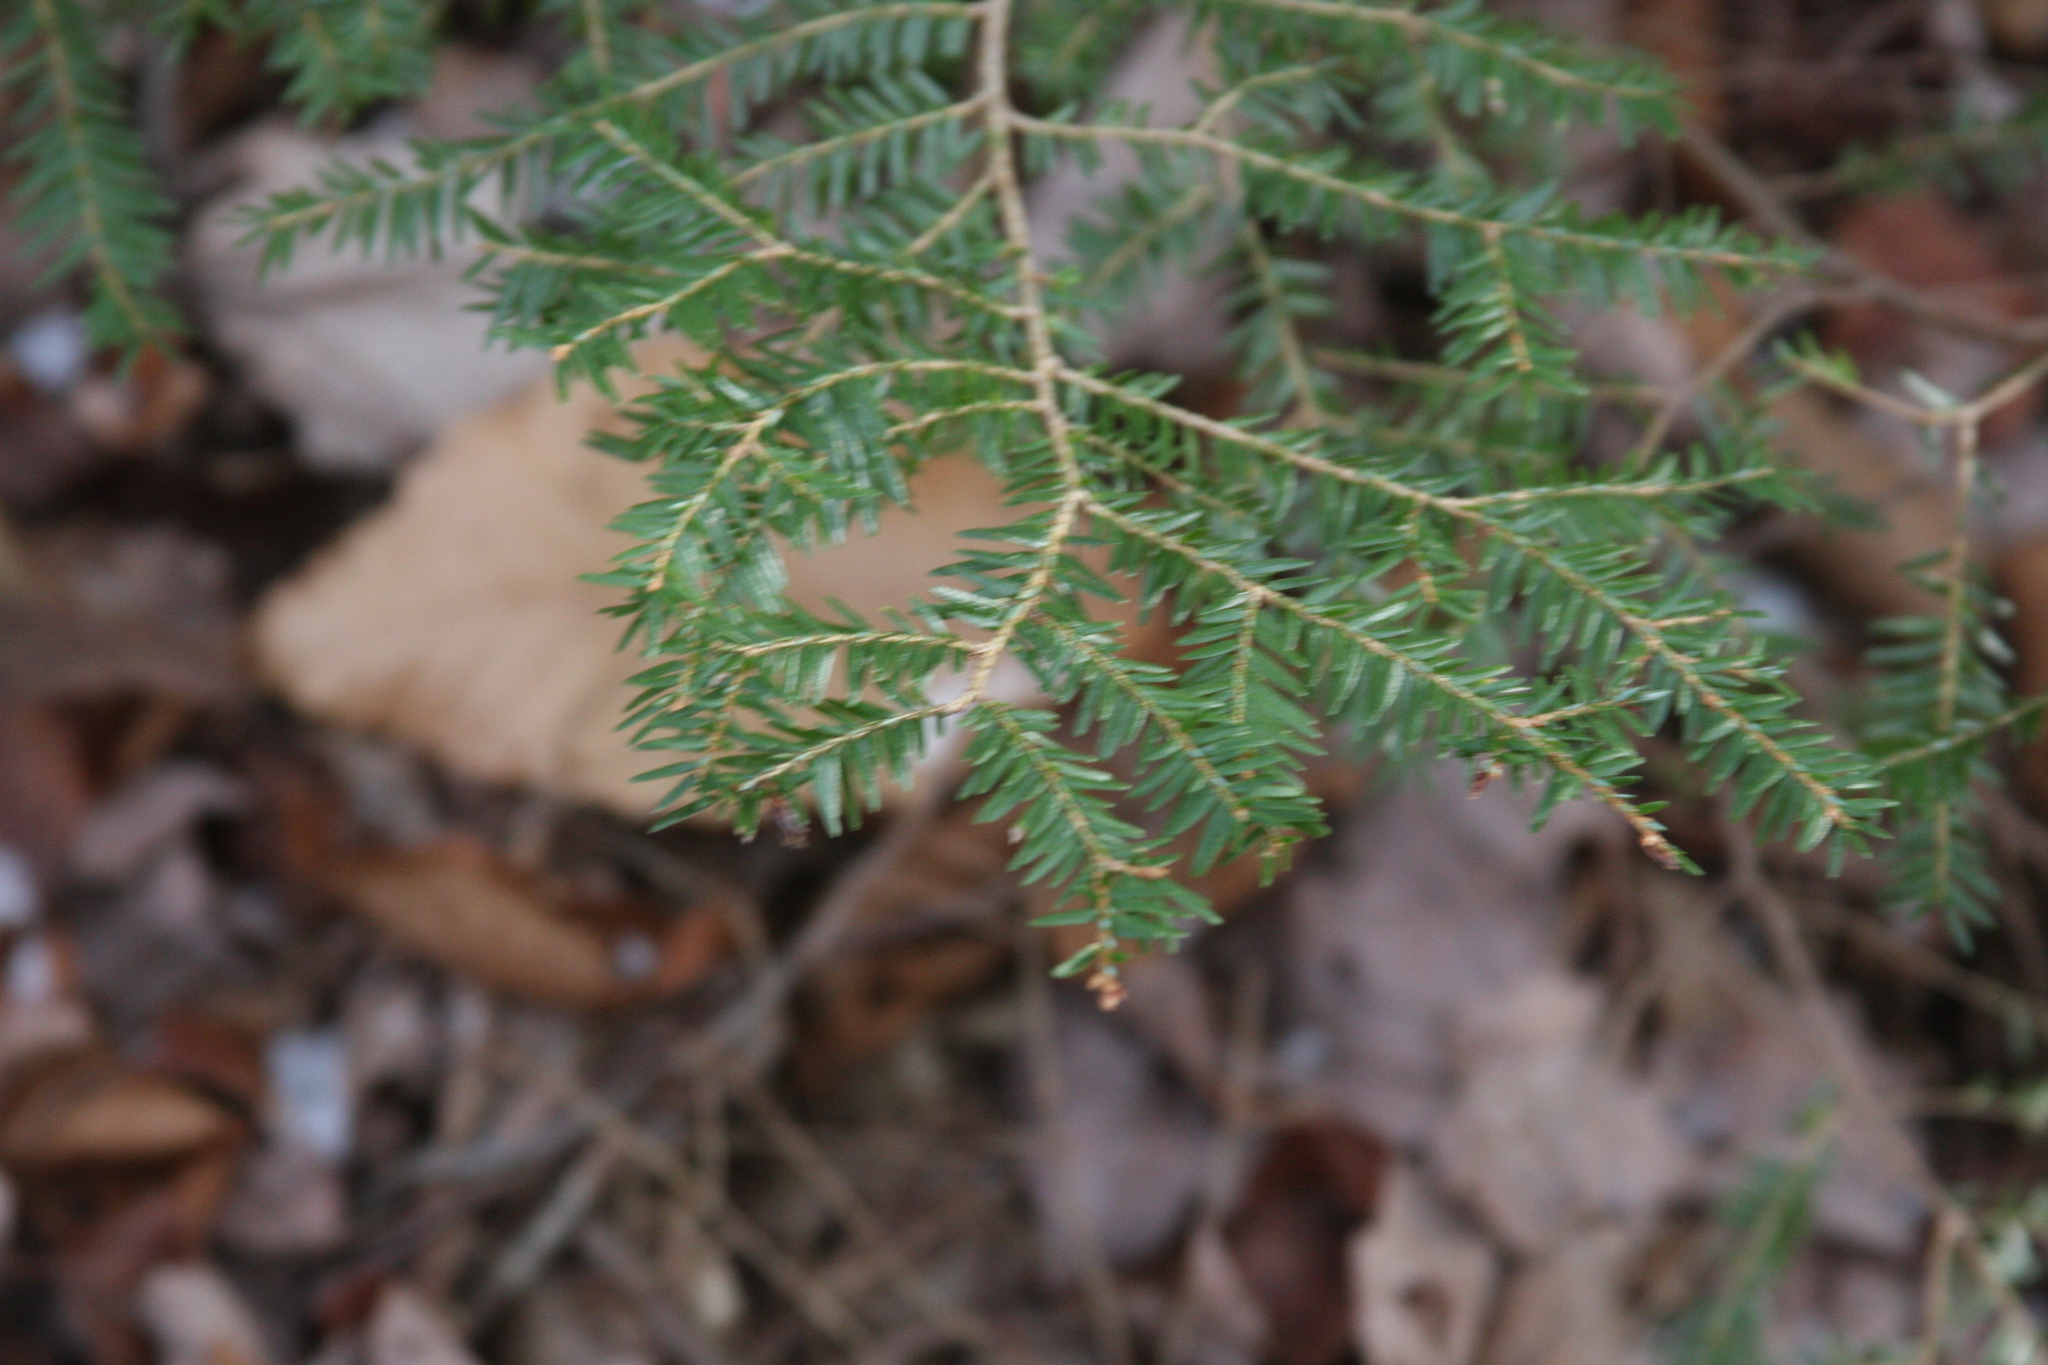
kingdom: Plantae
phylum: Tracheophyta
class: Pinopsida
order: Pinales
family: Pinaceae
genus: Tsuga
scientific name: Tsuga canadensis
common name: Eastern hemlock
